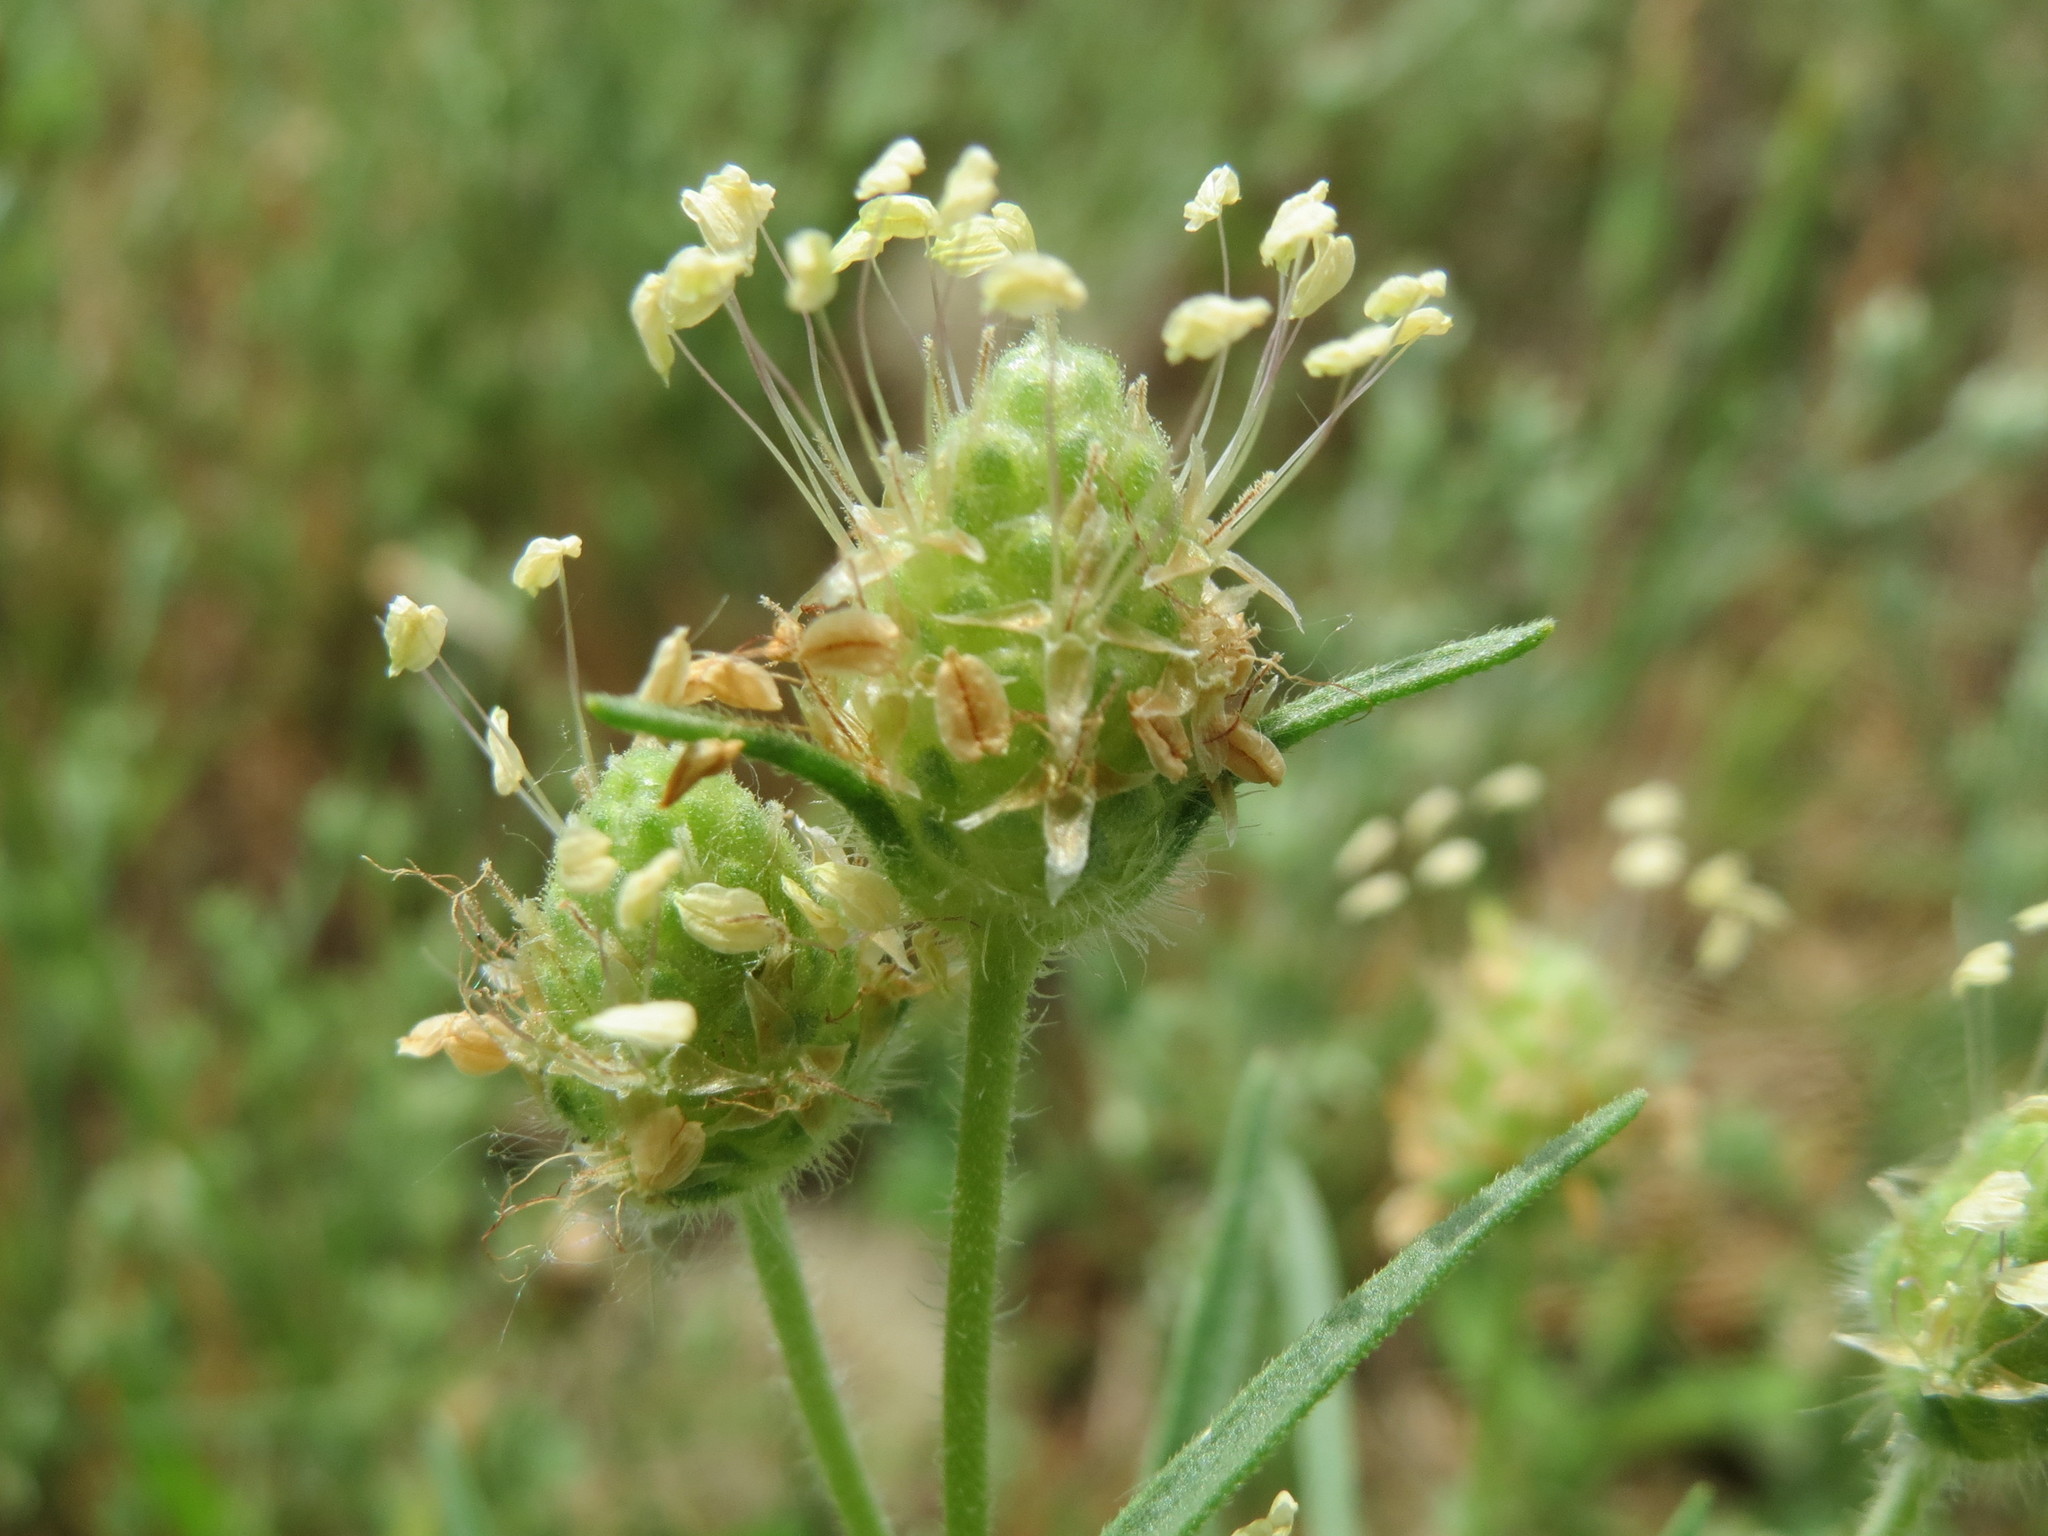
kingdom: Plantae
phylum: Tracheophyta
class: Magnoliopsida
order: Lamiales
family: Plantaginaceae
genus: Plantago
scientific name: Plantago arenaria
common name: Branched plantain
